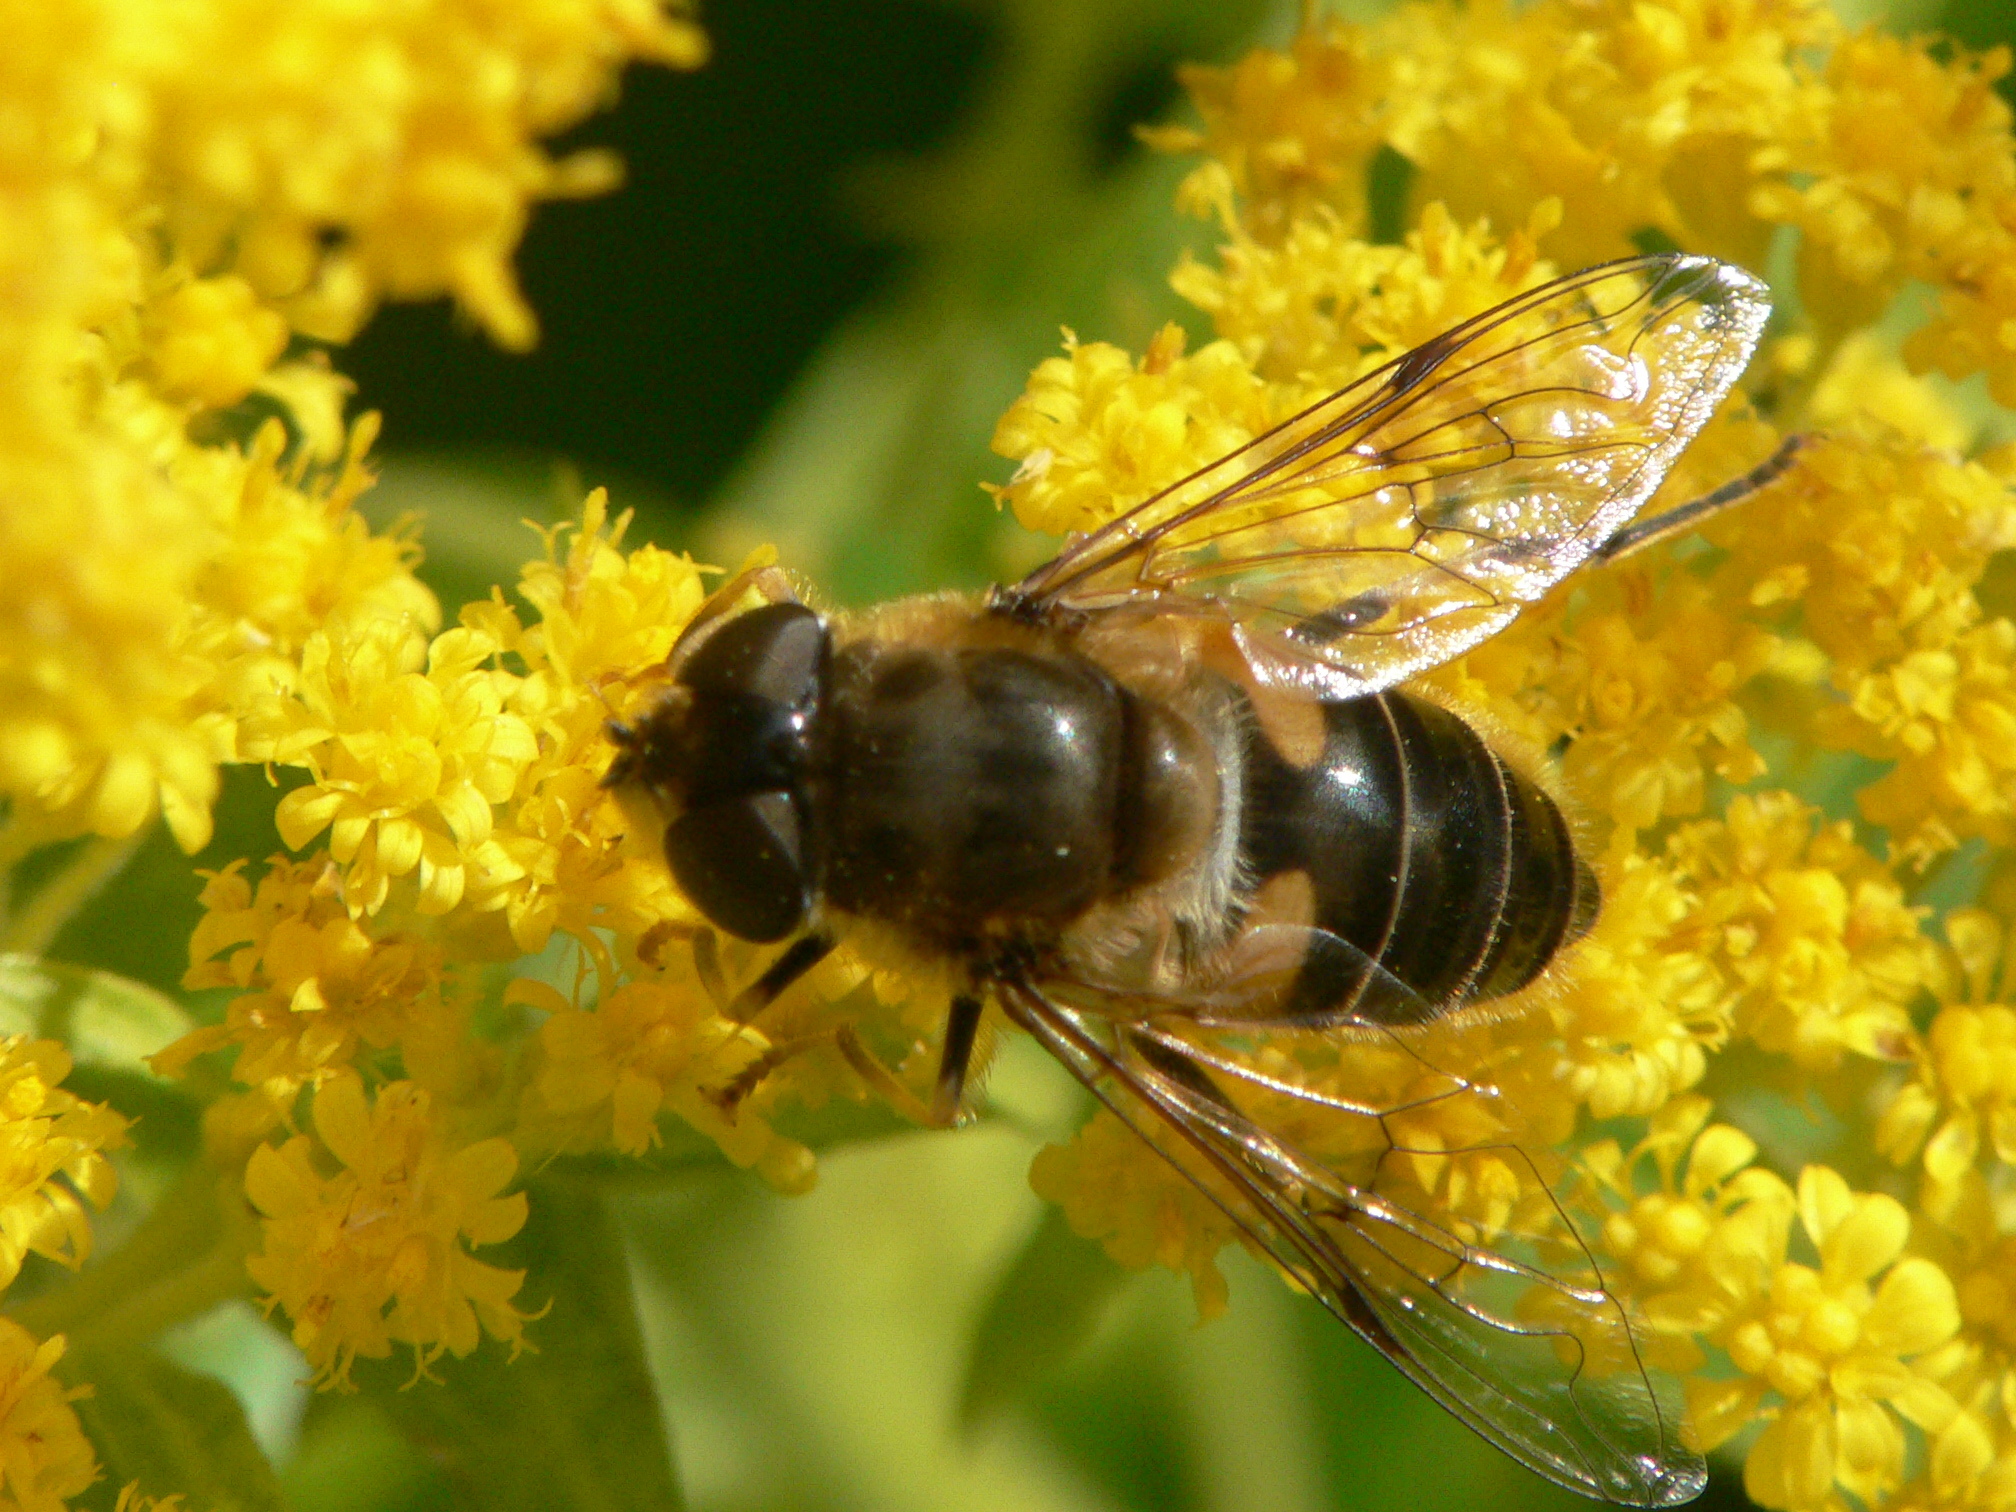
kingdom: Animalia
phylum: Arthropoda
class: Insecta
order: Diptera
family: Syrphidae
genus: Eristalis
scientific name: Eristalis pertinax
